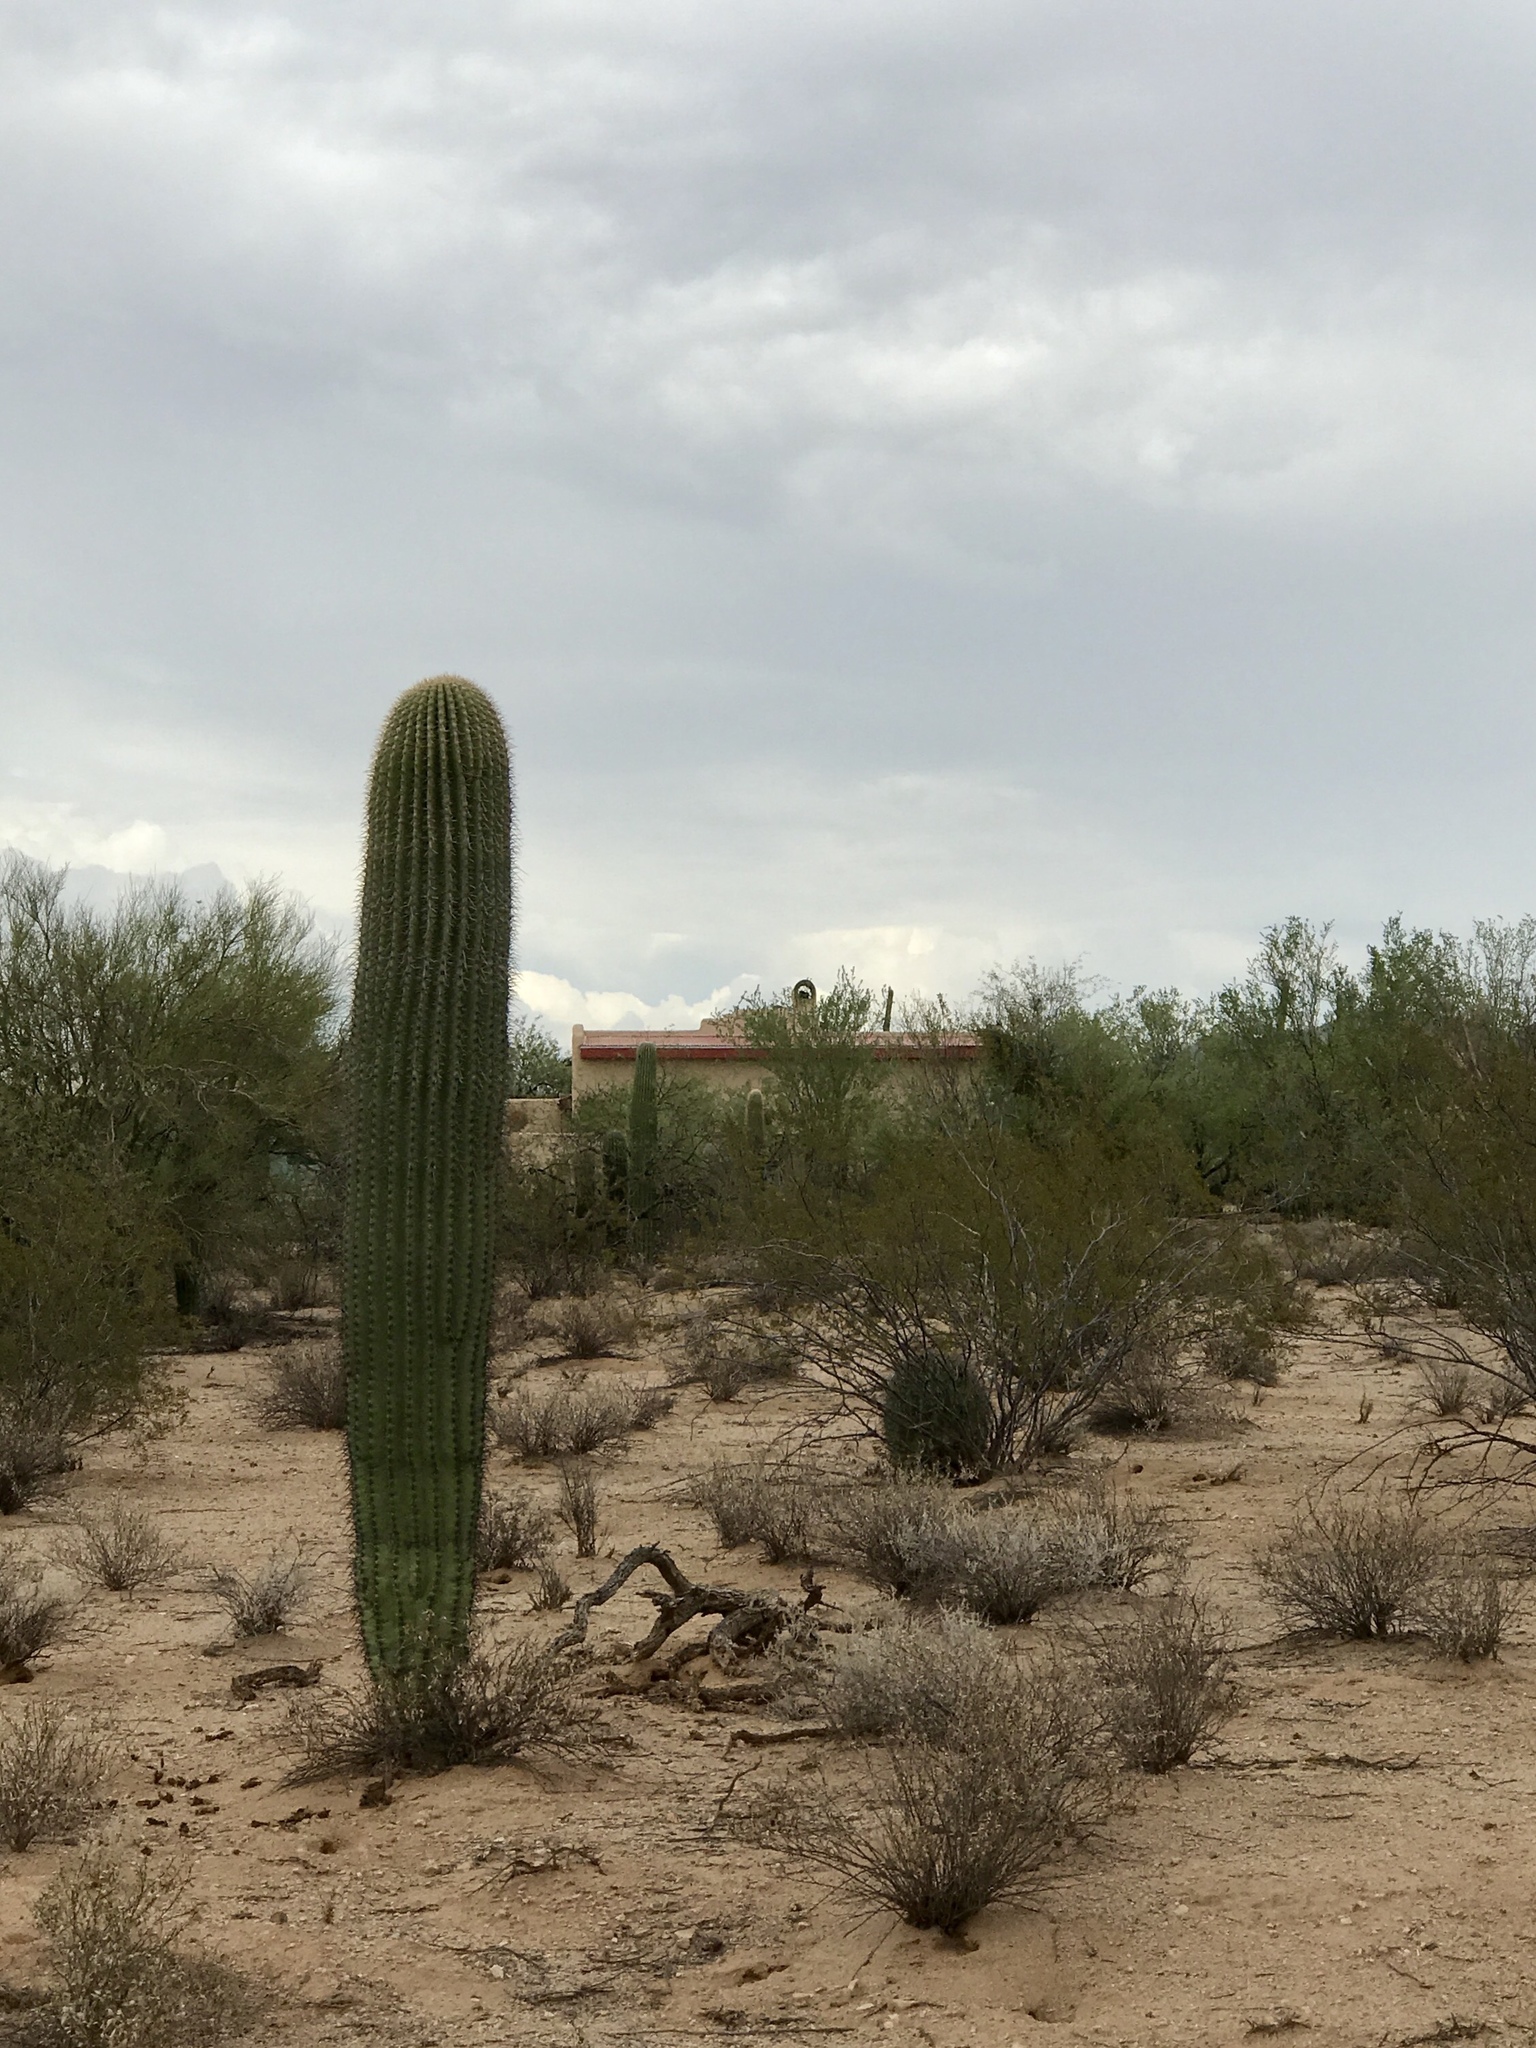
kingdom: Plantae
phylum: Tracheophyta
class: Magnoliopsida
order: Caryophyllales
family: Cactaceae
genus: Carnegiea
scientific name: Carnegiea gigantea
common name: Saguaro
